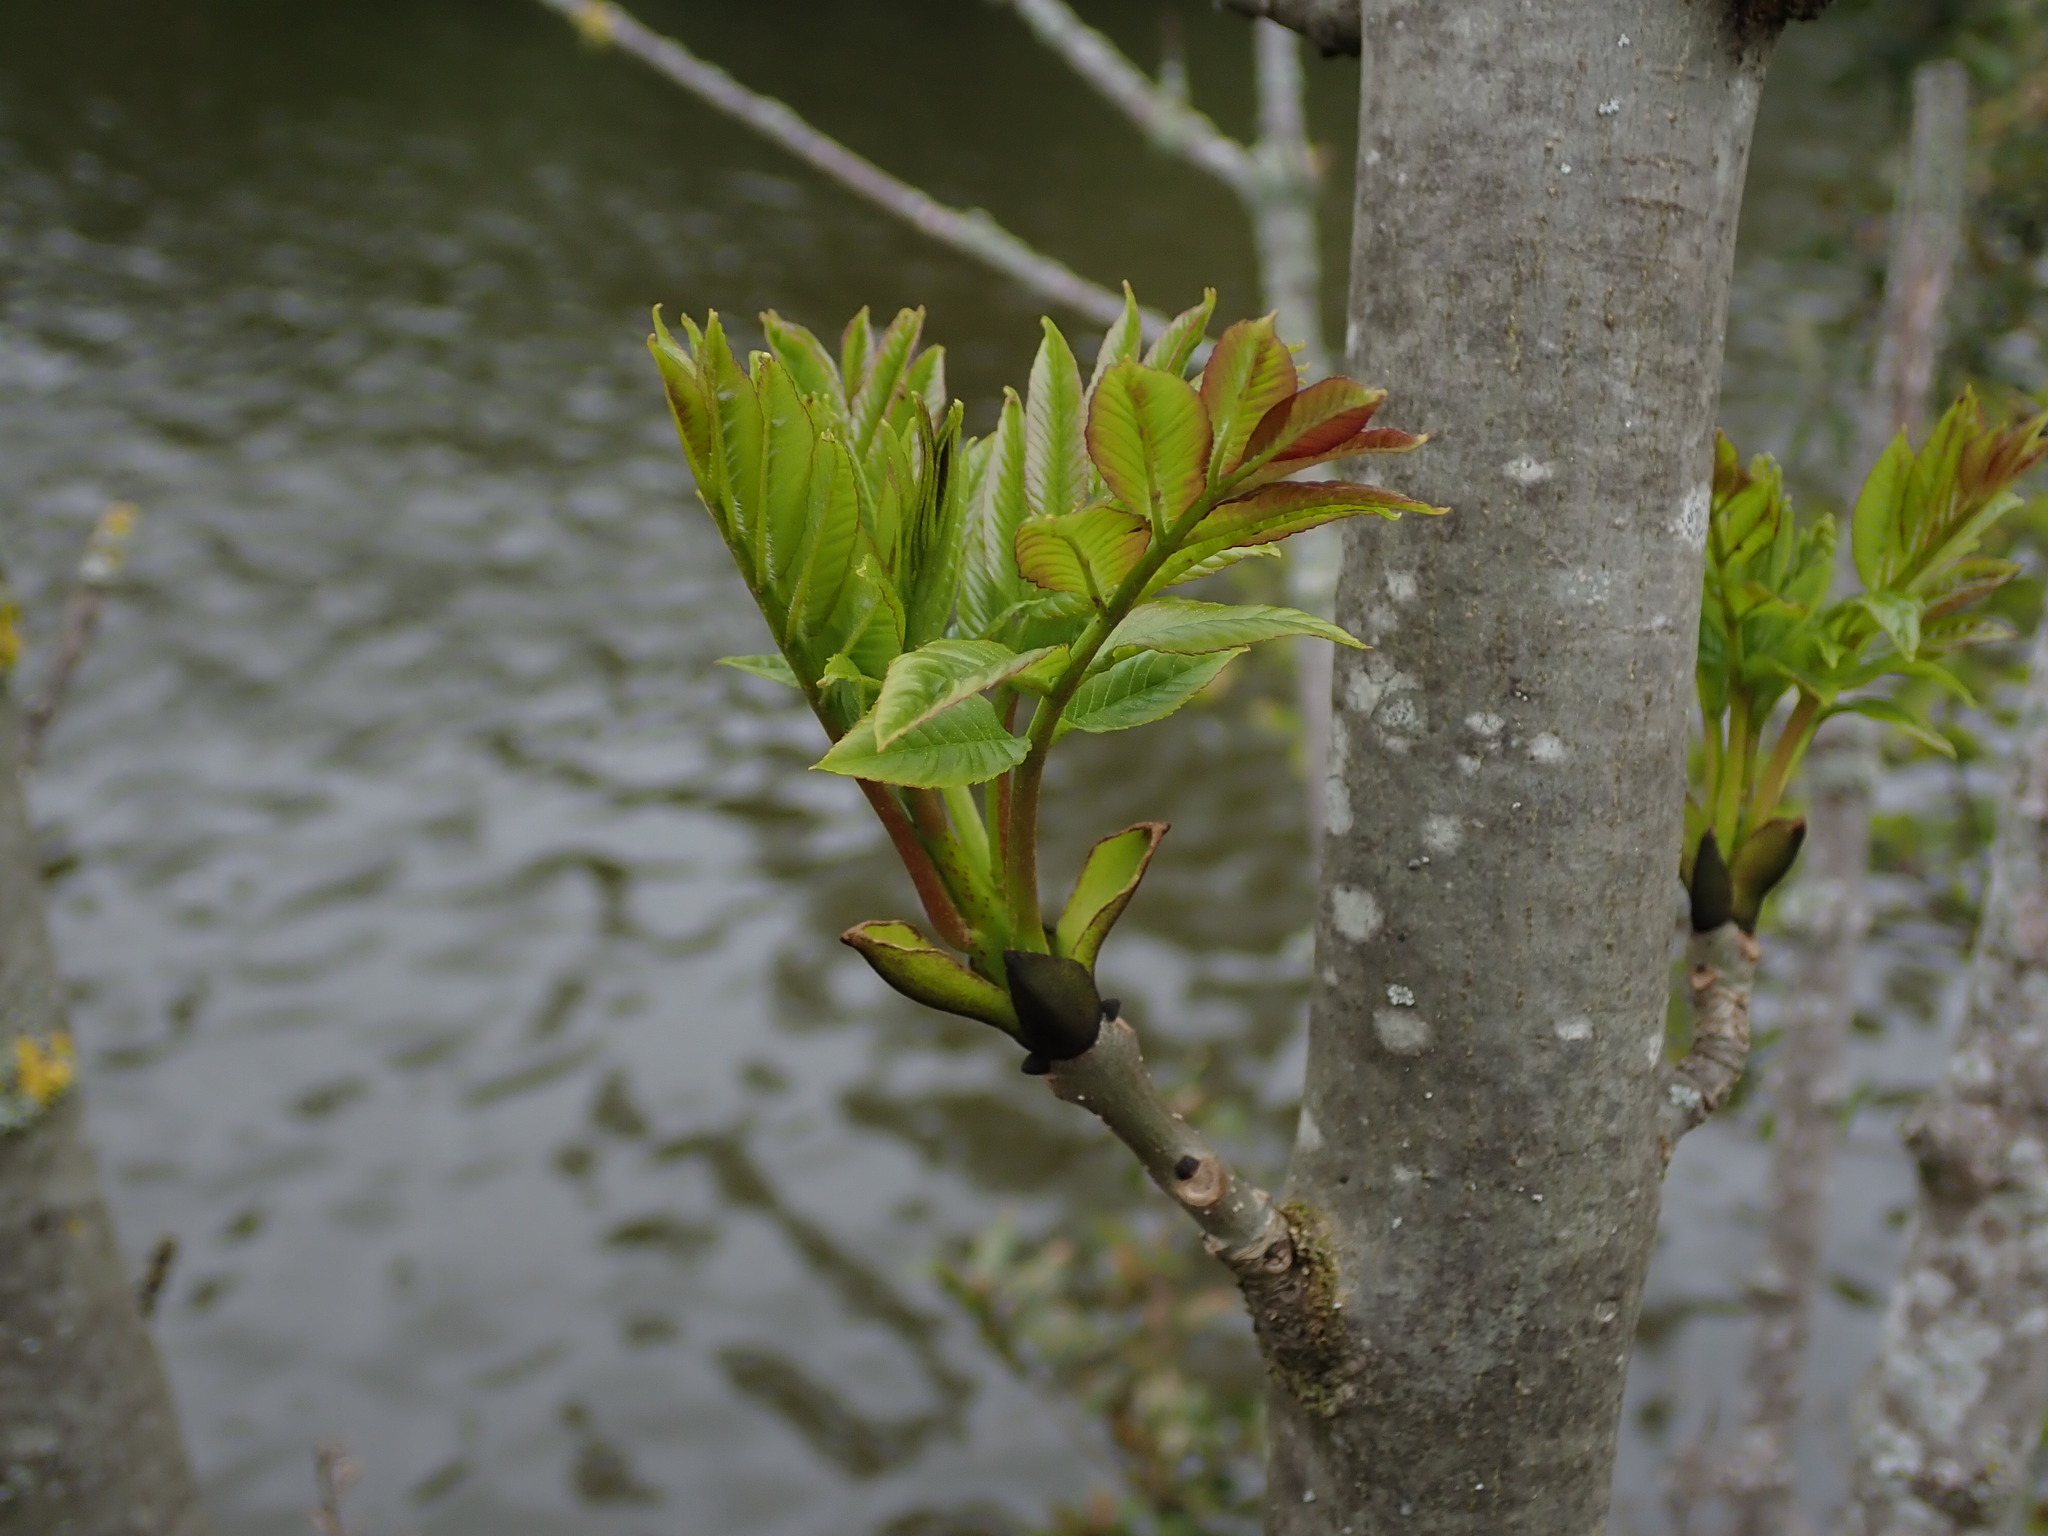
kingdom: Plantae
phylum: Tracheophyta
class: Magnoliopsida
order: Lamiales
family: Oleaceae
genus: Fraxinus
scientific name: Fraxinus excelsior
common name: European ash
